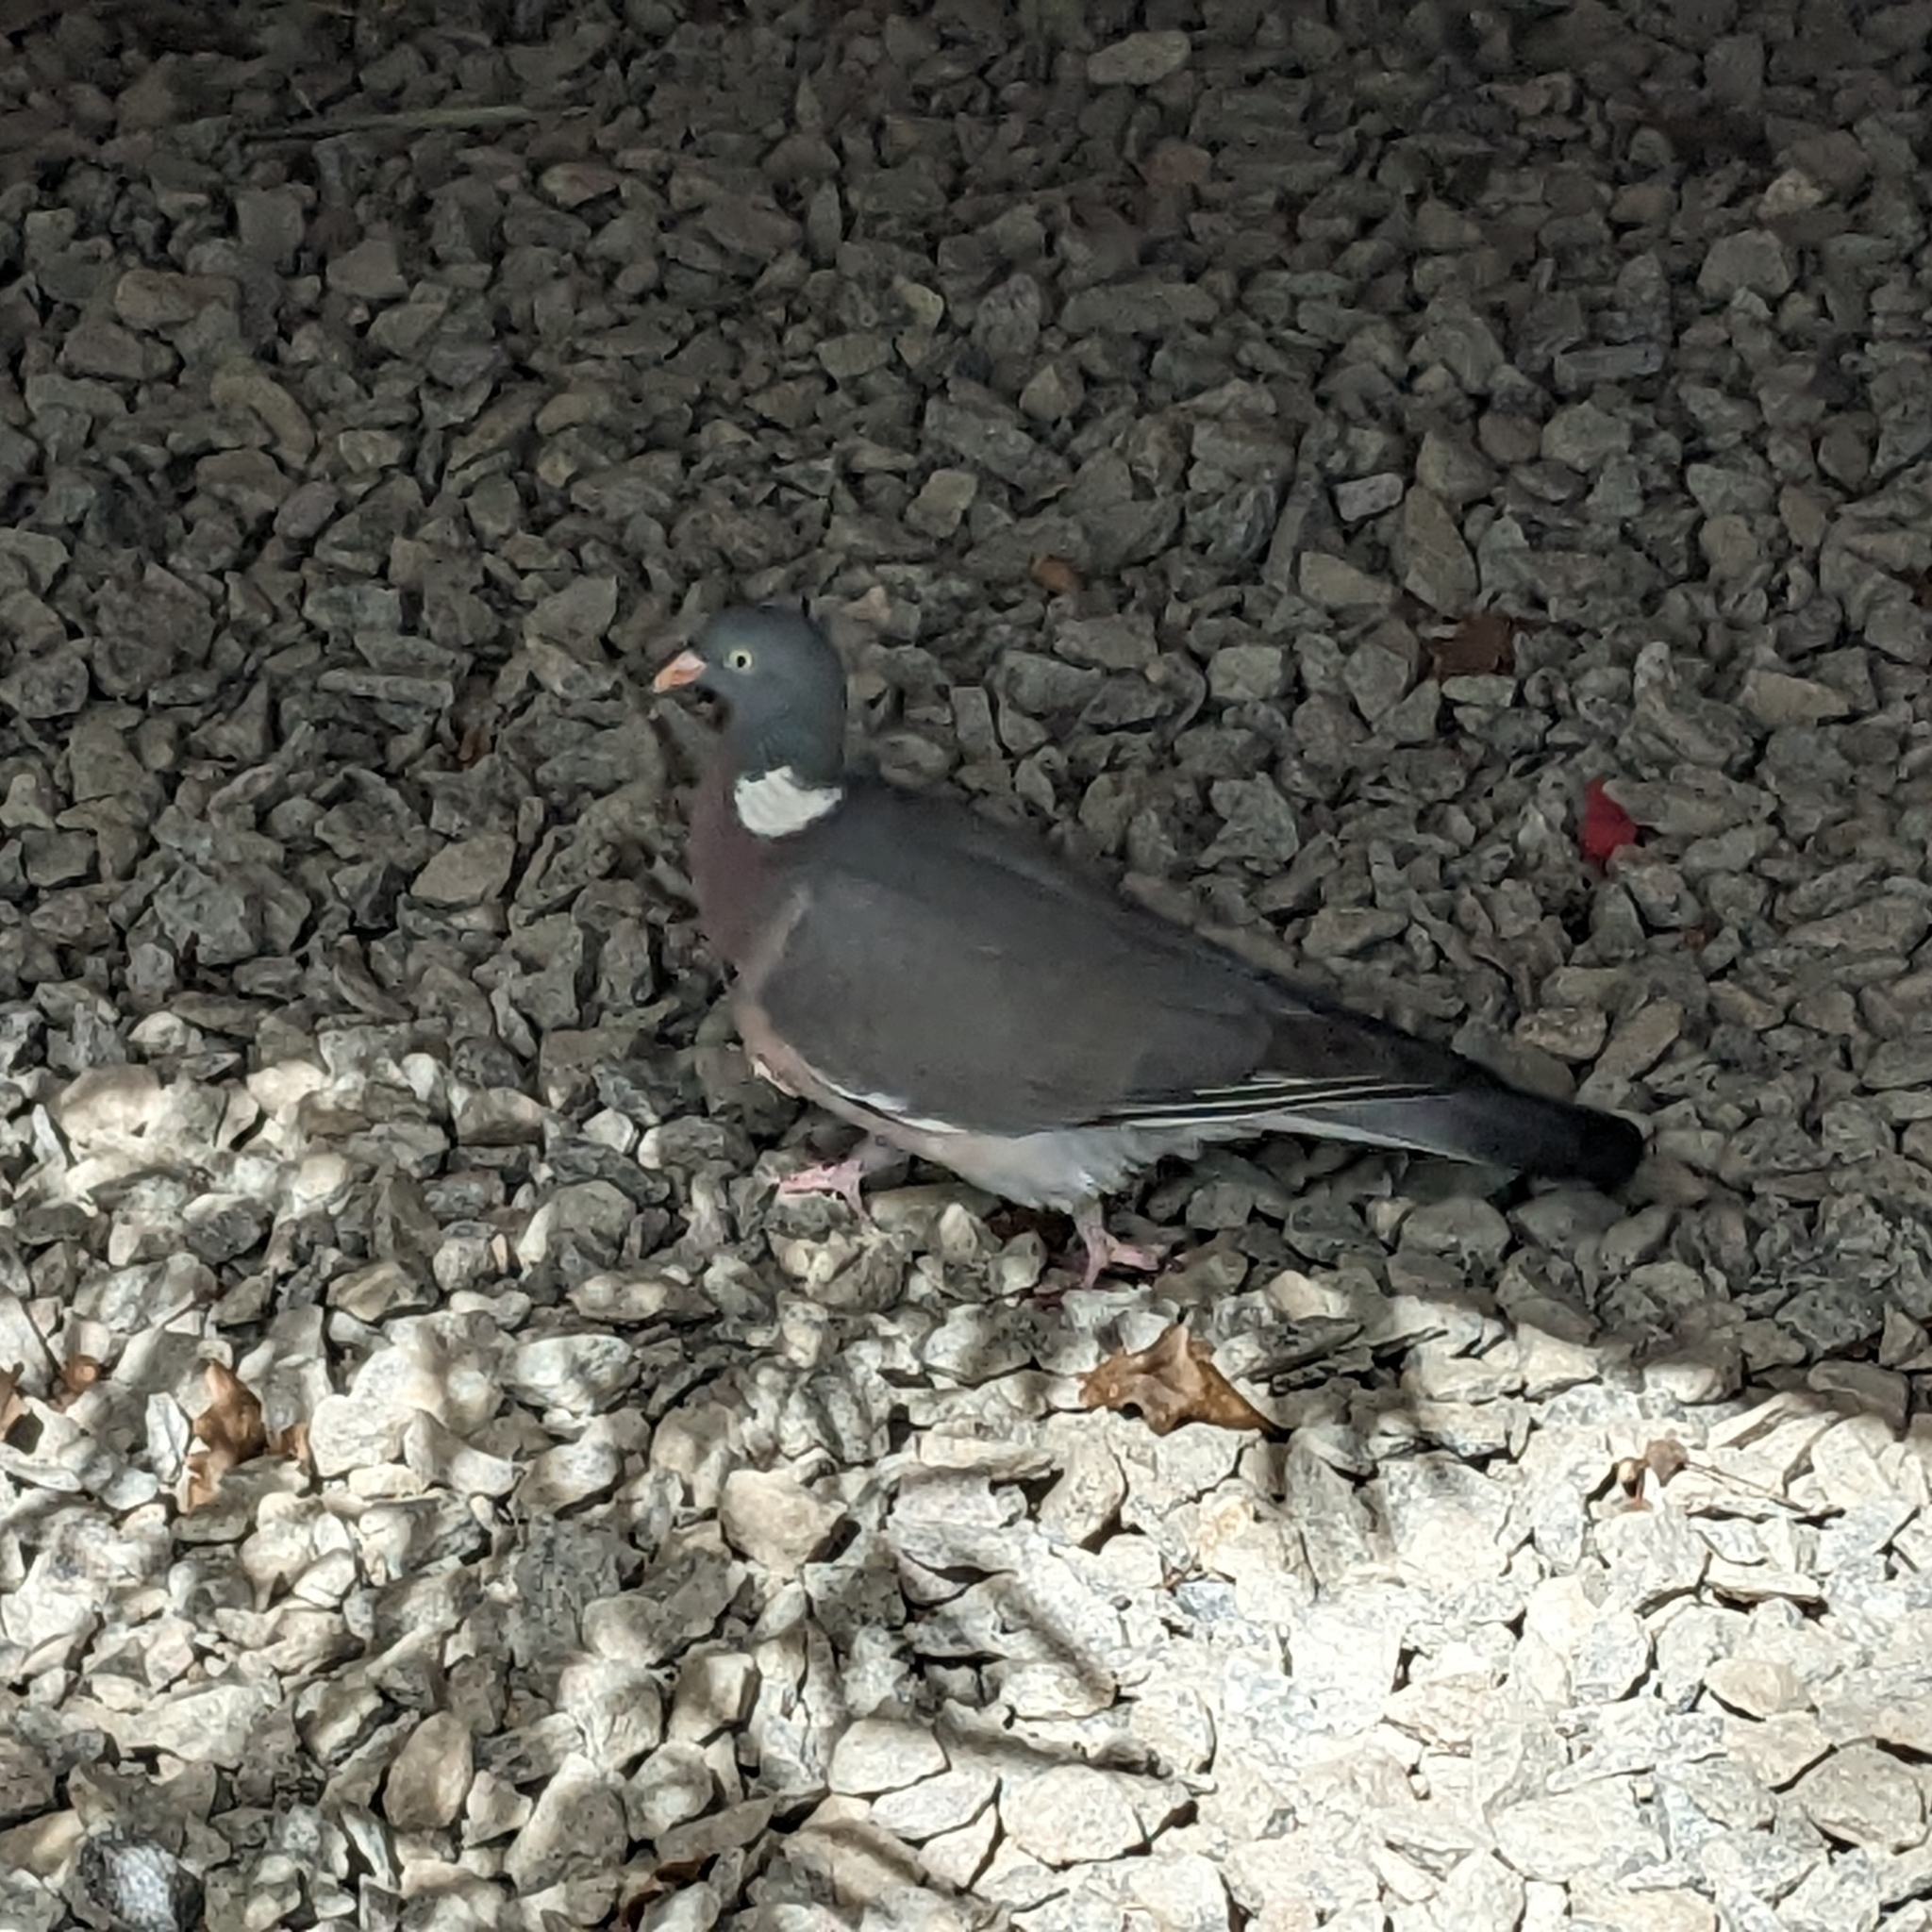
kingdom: Animalia
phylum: Chordata
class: Aves
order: Columbiformes
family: Columbidae
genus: Columba
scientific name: Columba palumbus
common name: Common wood pigeon
